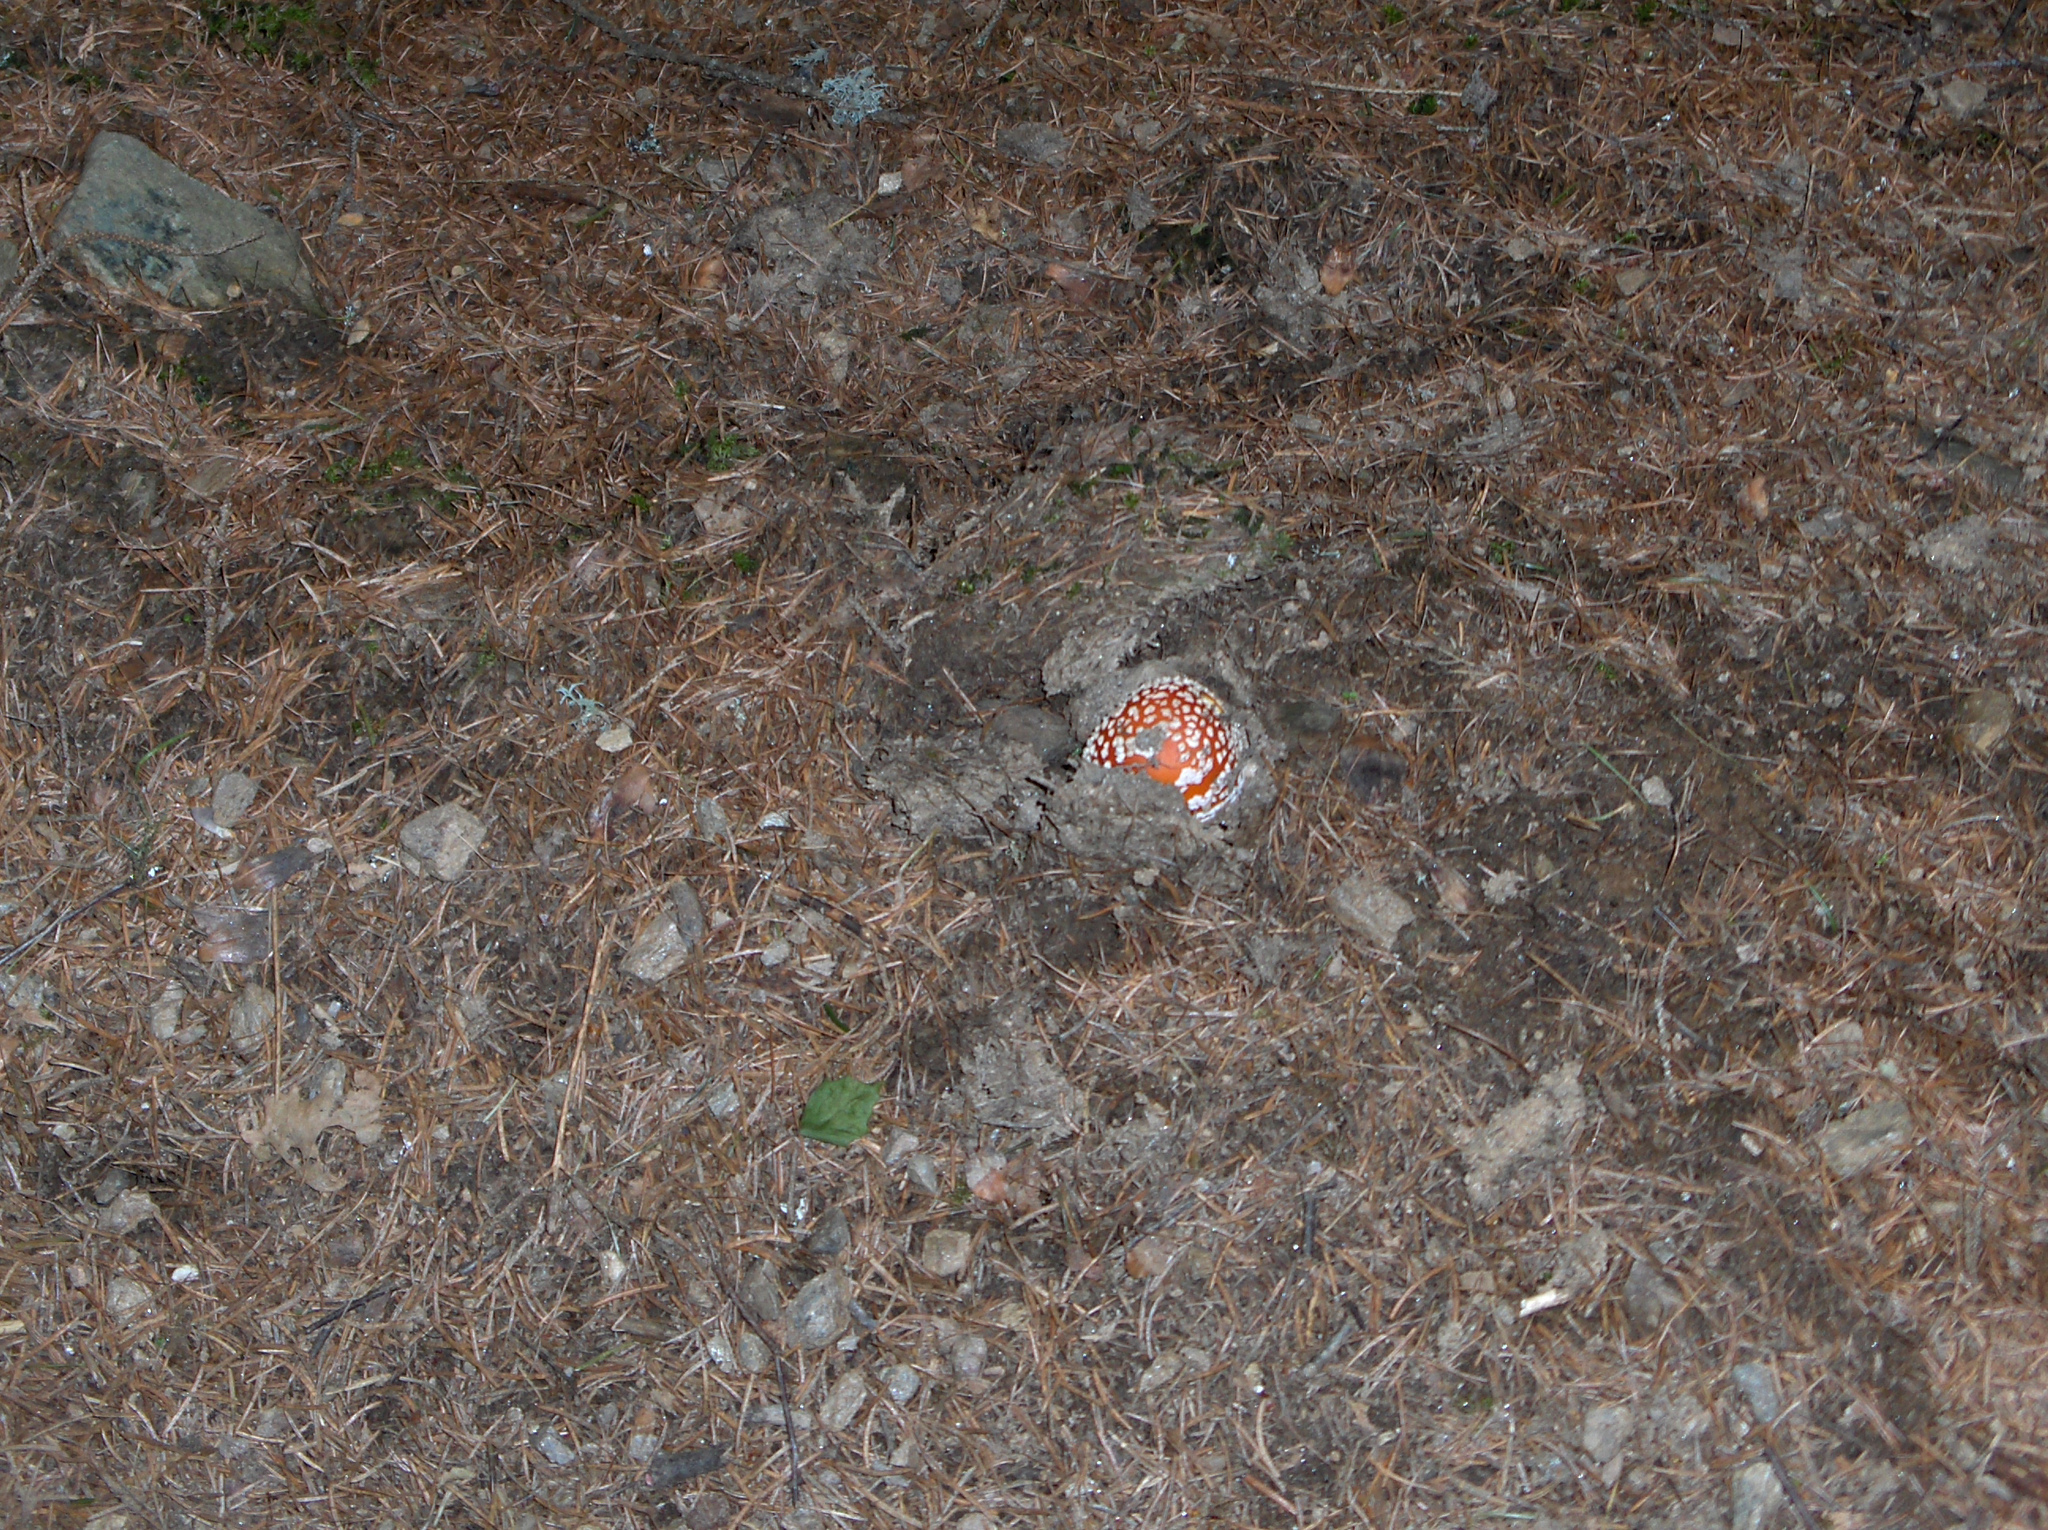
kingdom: Fungi
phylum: Basidiomycota
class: Agaricomycetes
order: Agaricales
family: Amanitaceae
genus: Amanita
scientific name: Amanita muscaria
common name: Fly agaric
